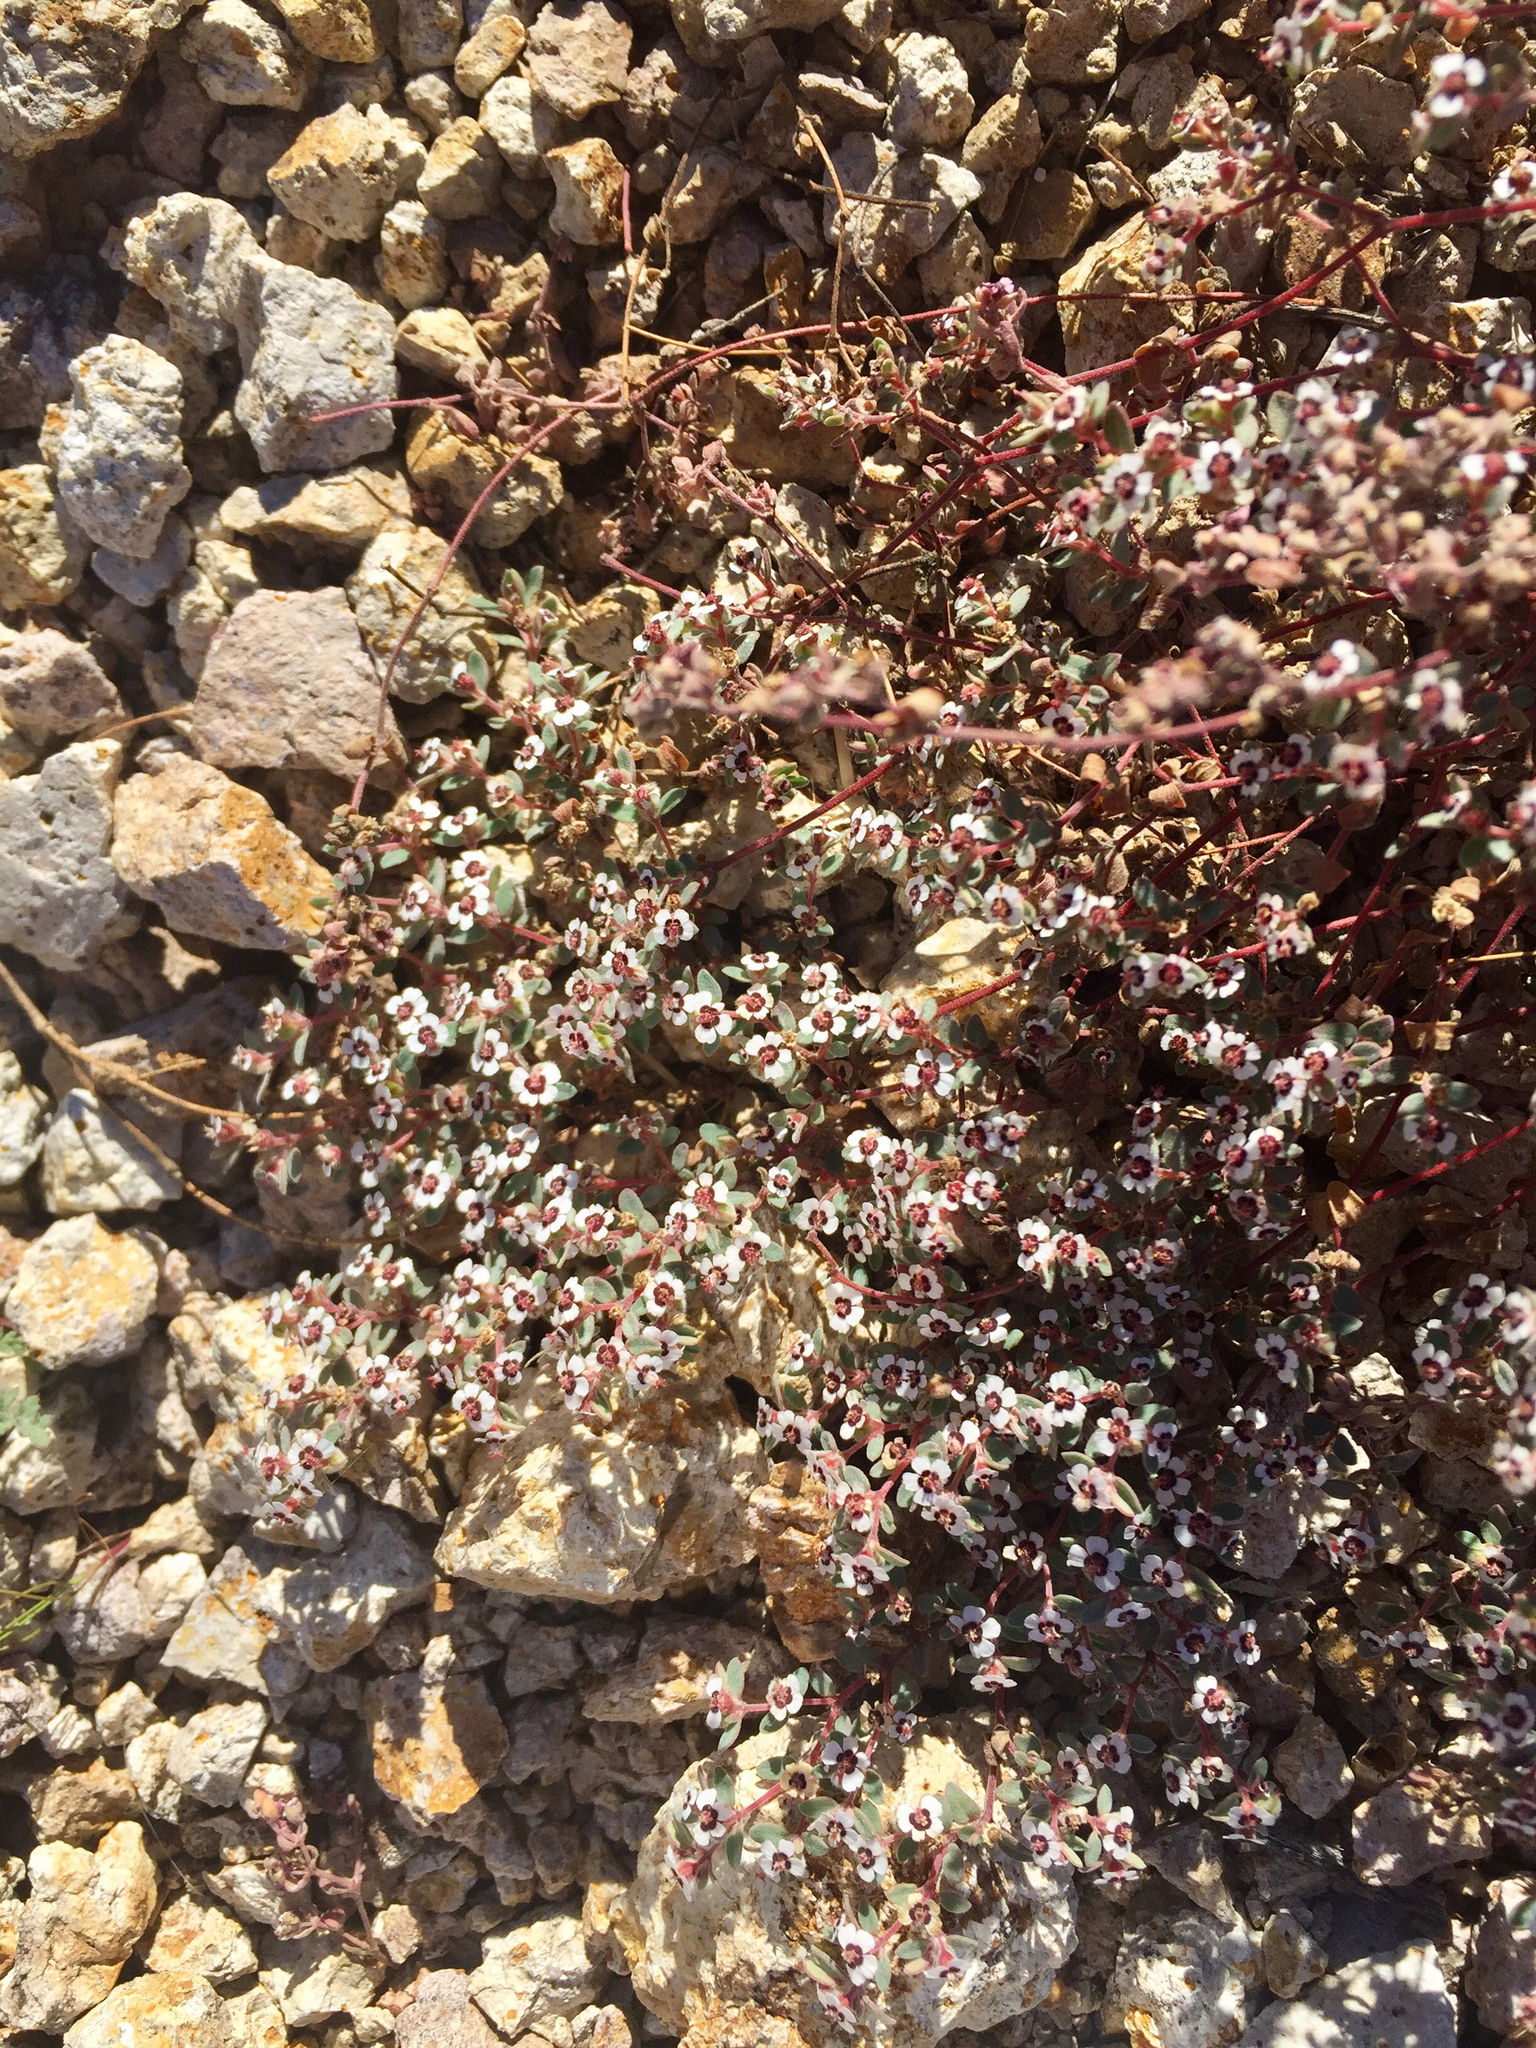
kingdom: Plantae
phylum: Tracheophyta
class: Magnoliopsida
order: Malpighiales
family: Euphorbiaceae
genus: Euphorbia
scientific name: Euphorbia melanadenia
